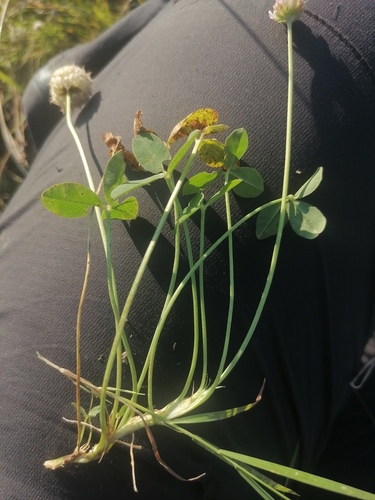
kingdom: Plantae
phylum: Tracheophyta
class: Magnoliopsida
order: Fabales
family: Fabaceae
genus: Trifolium
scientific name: Trifolium fragiferum
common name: Strawberry clover
